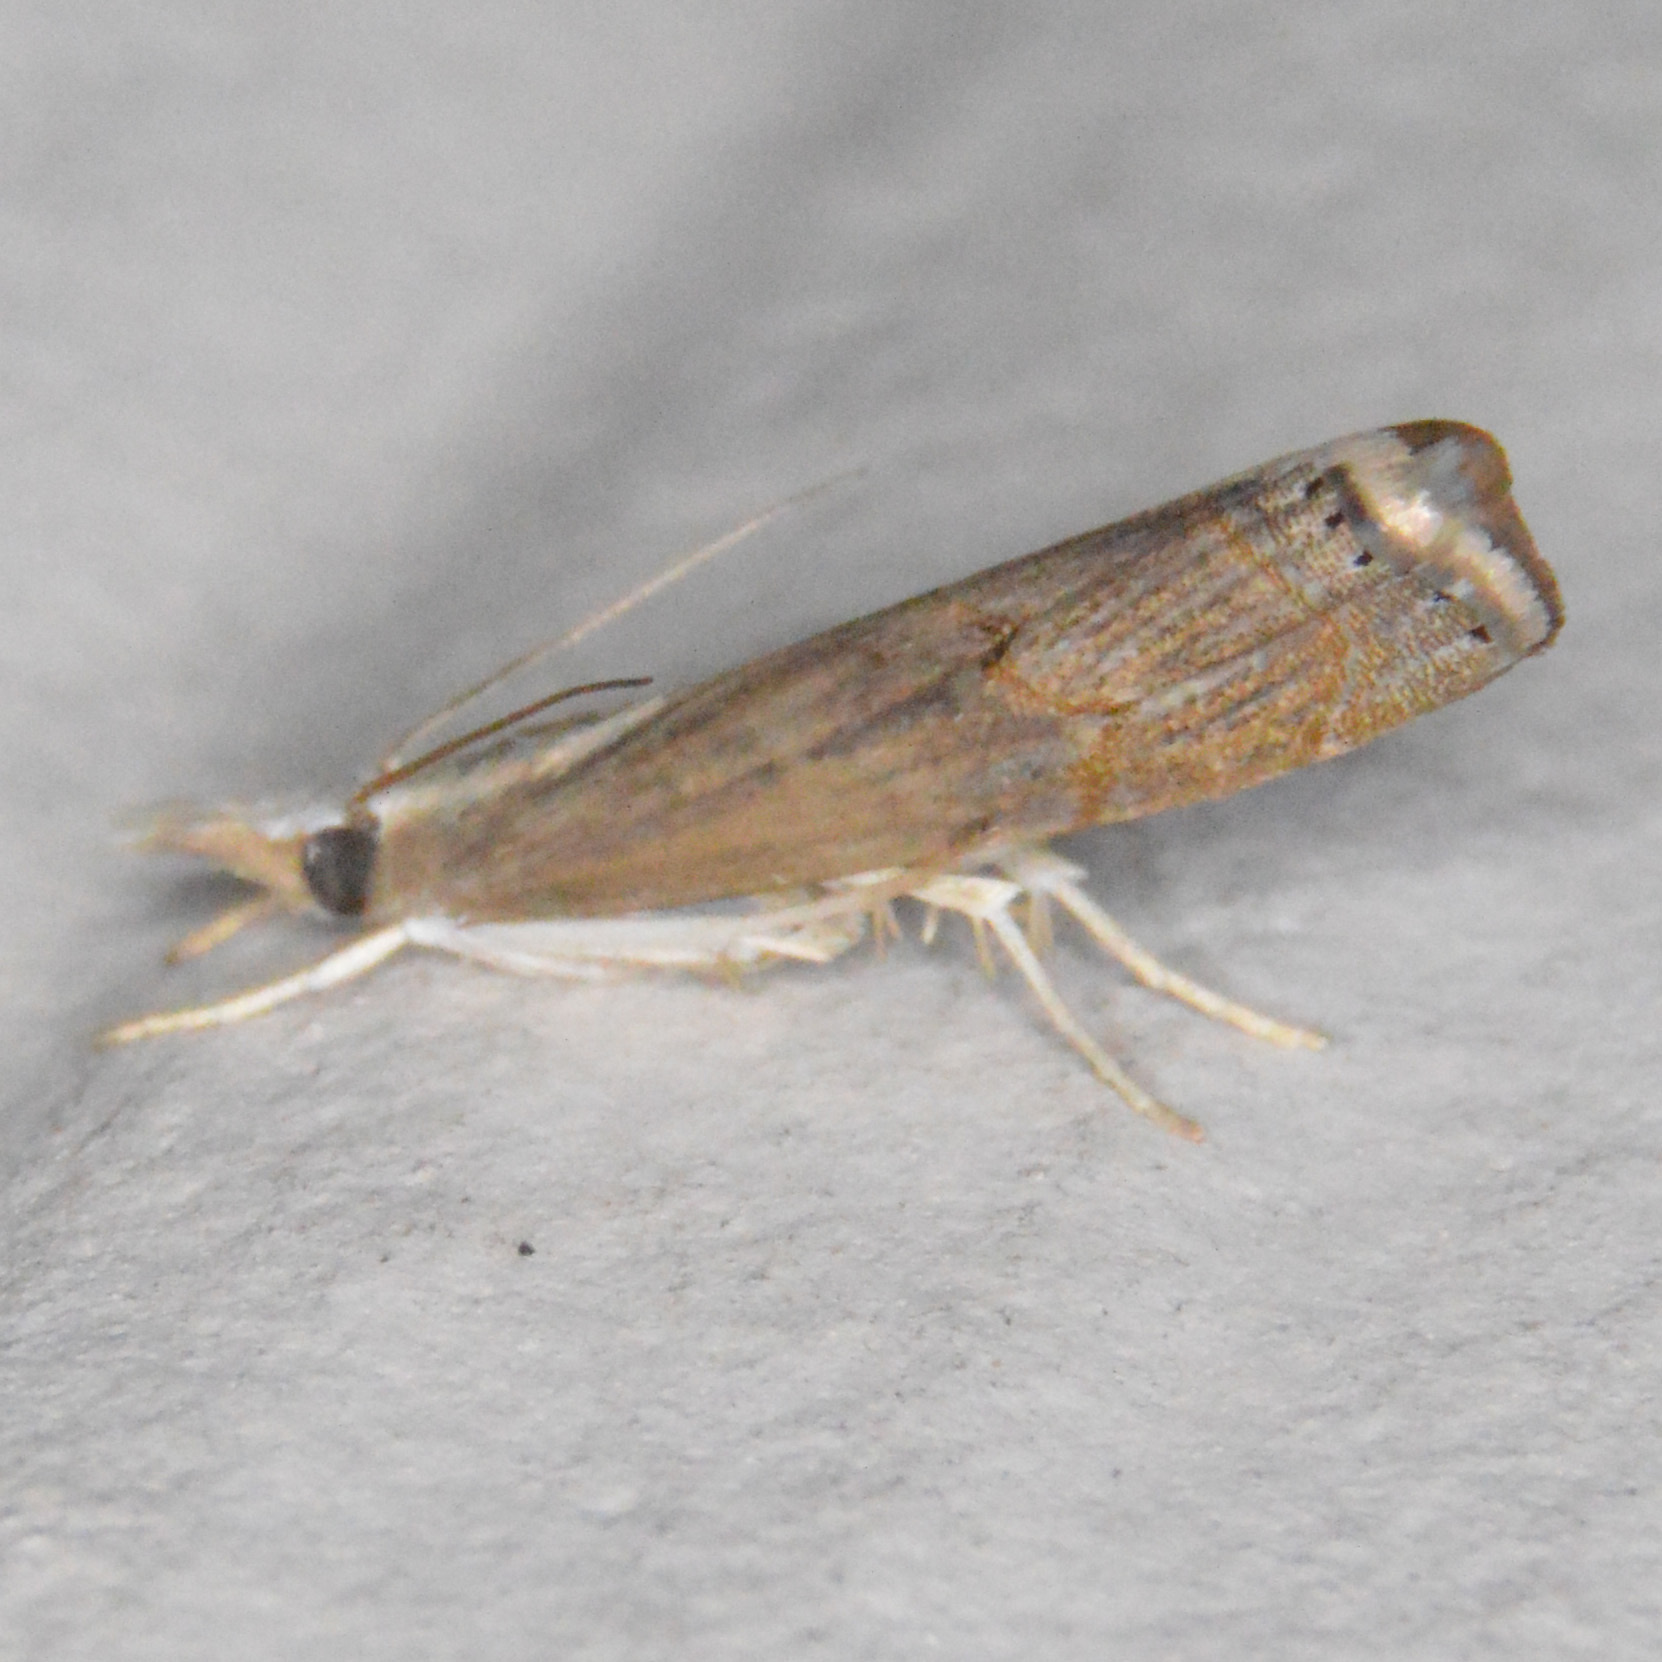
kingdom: Animalia
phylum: Arthropoda
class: Insecta
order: Lepidoptera
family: Crambidae
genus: Parapediasia
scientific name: Parapediasia teterellus
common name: Bluegrass webworm moth
